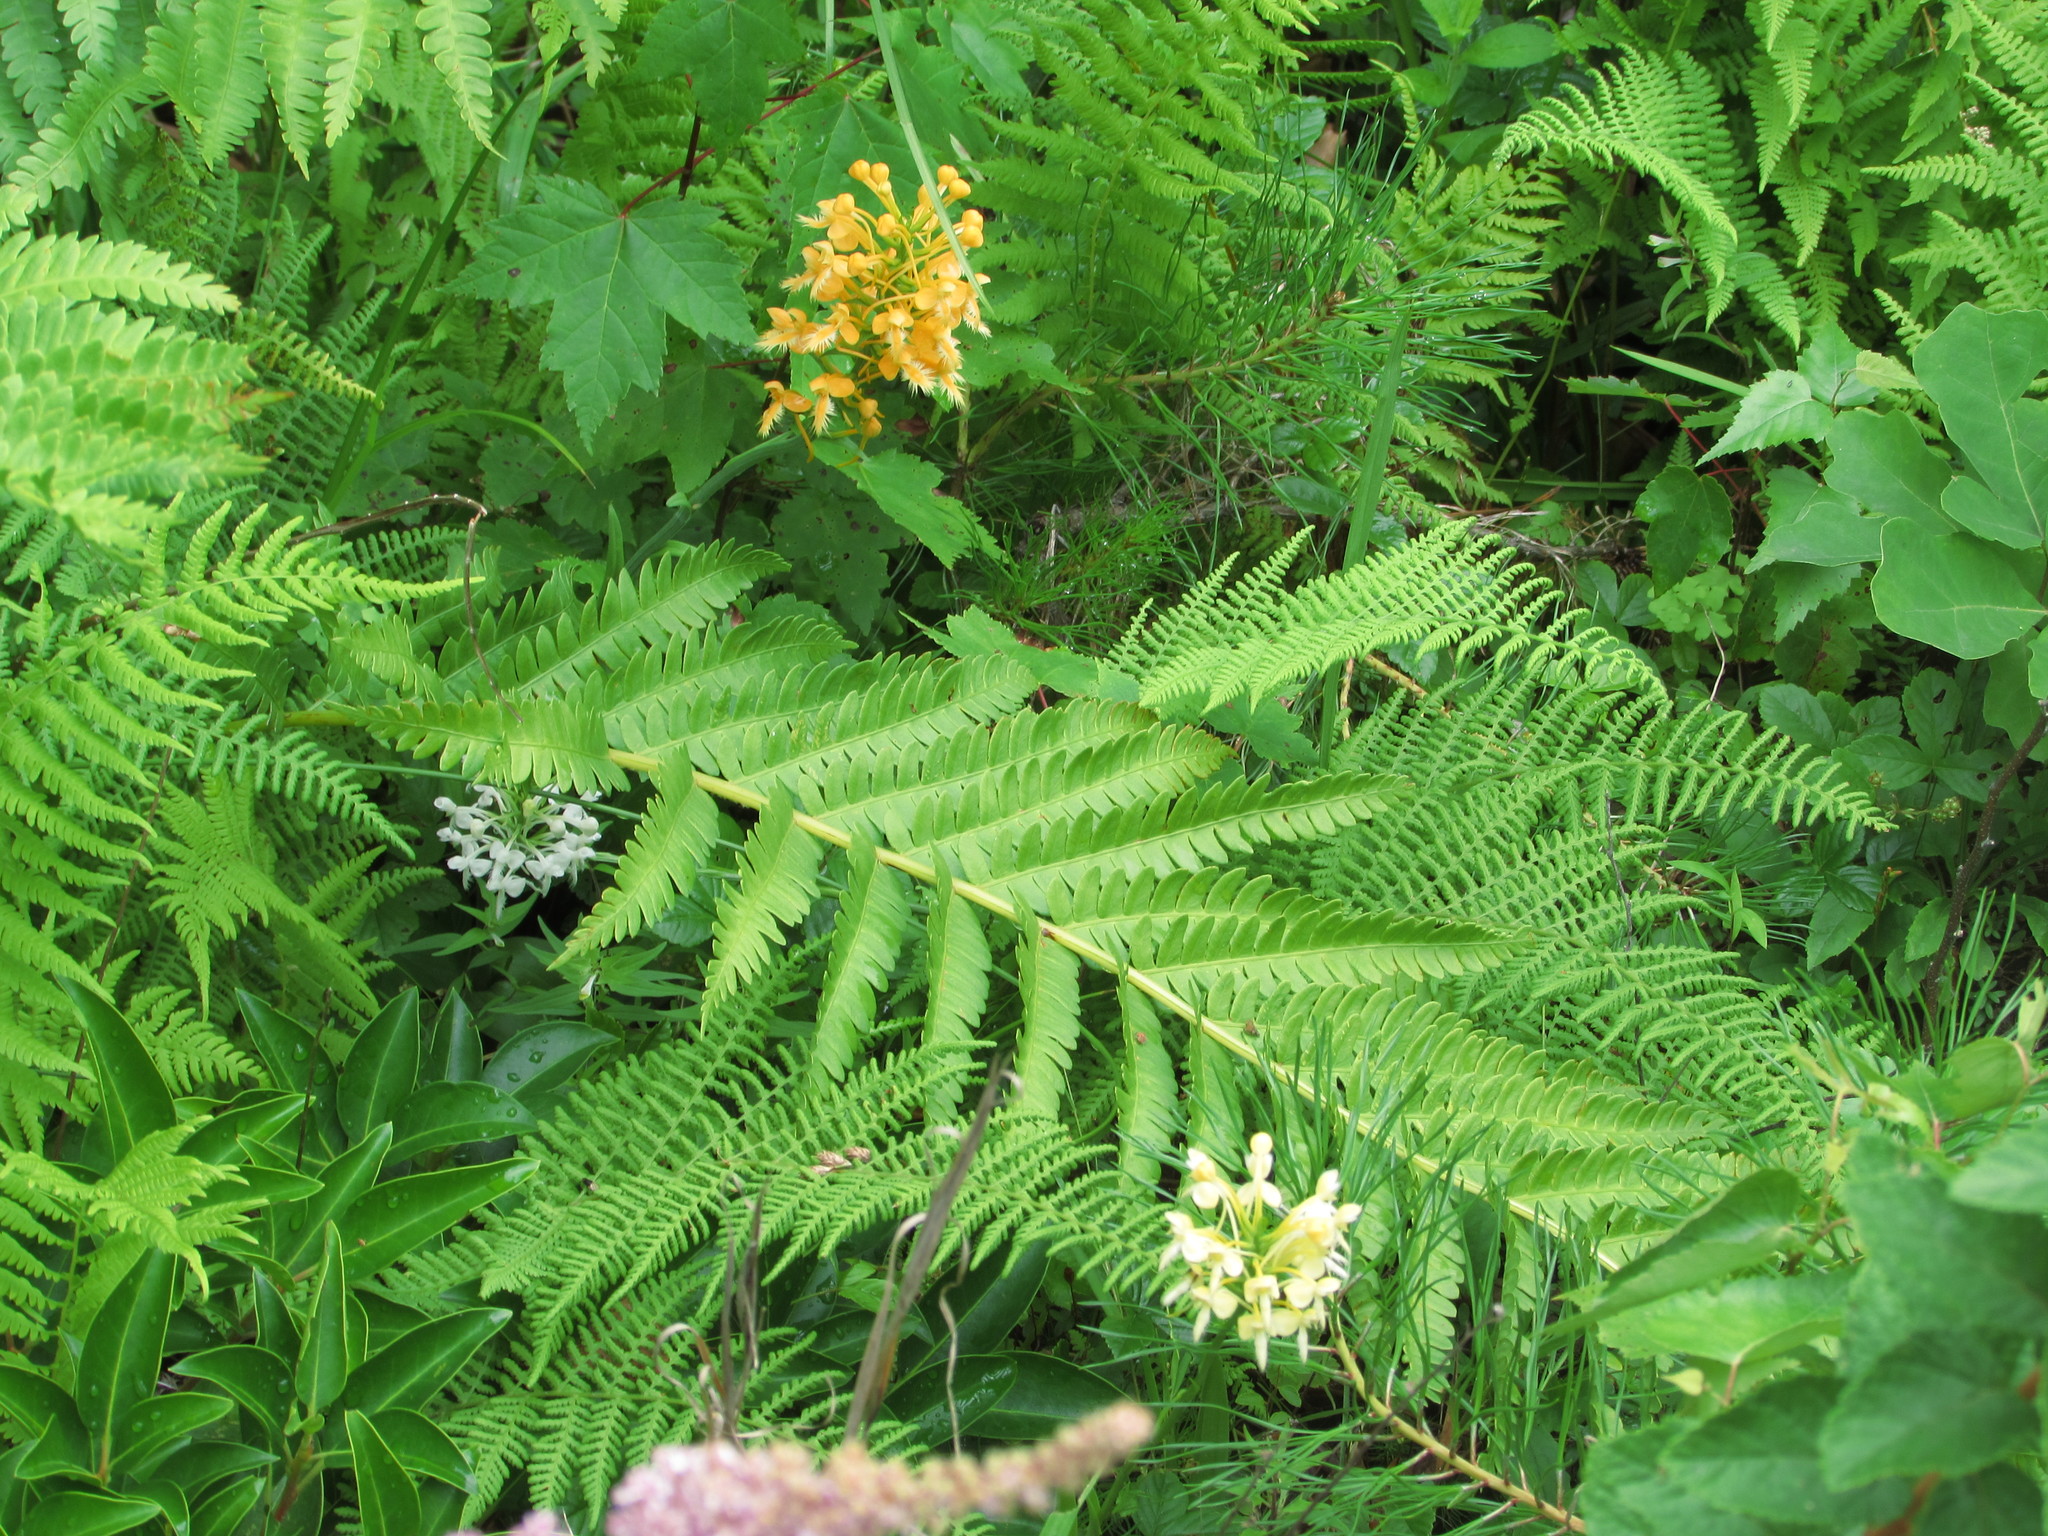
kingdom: Plantae
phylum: Tracheophyta
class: Liliopsida
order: Asparagales
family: Orchidaceae
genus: Platanthera
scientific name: Platanthera bicolor
